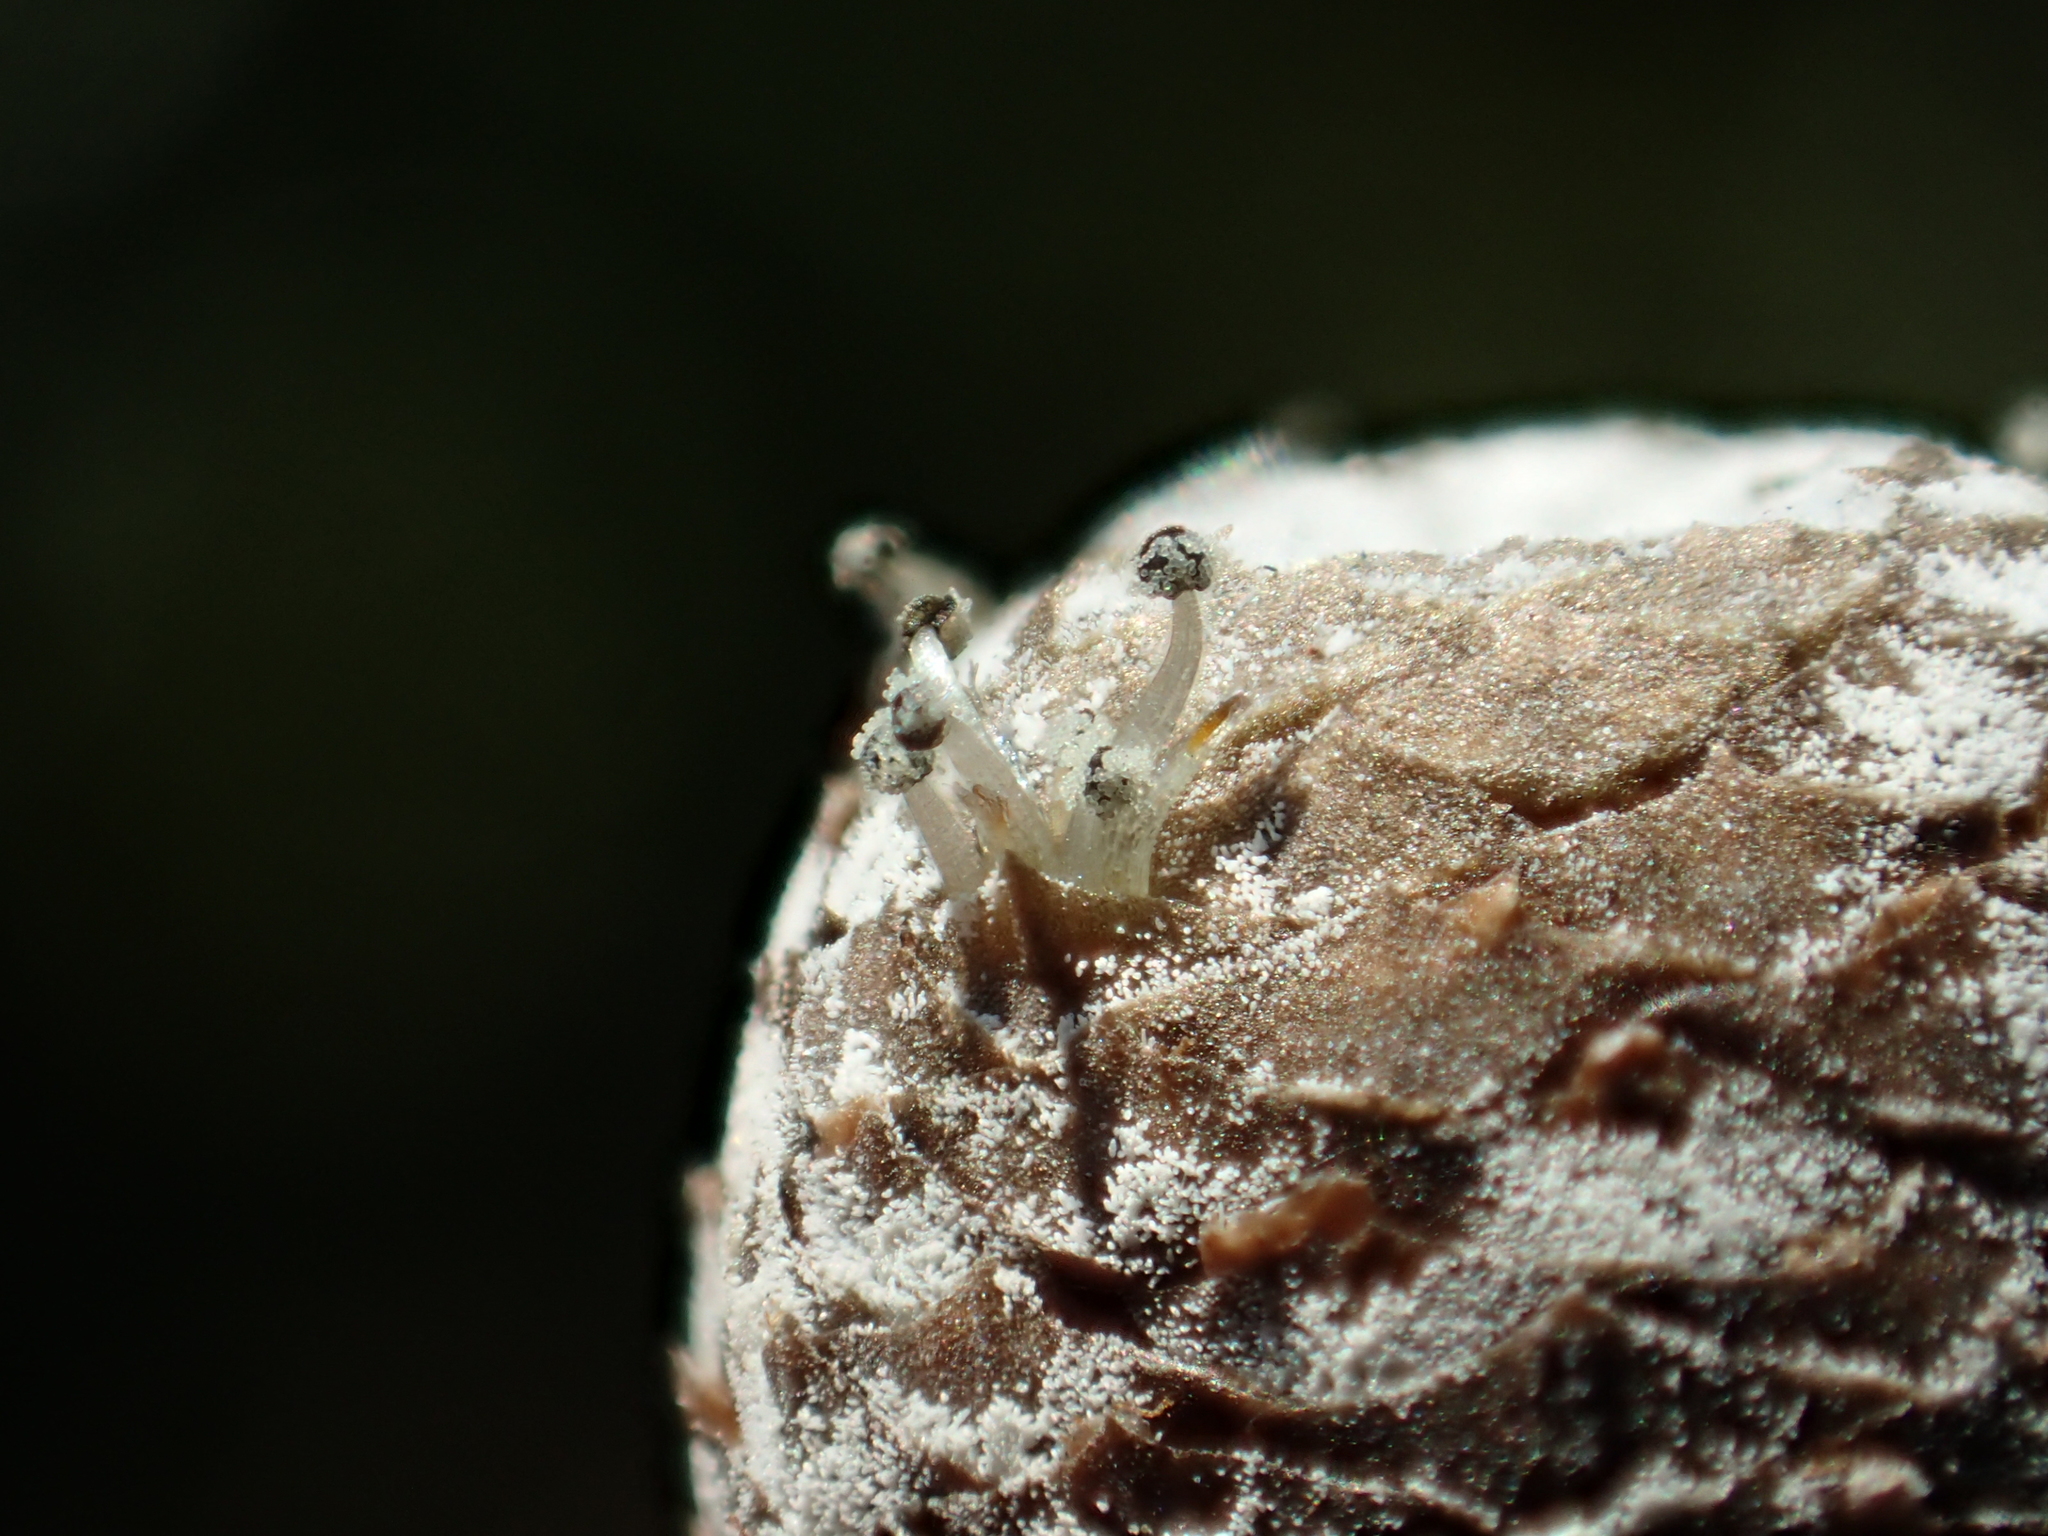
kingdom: Plantae
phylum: Tracheophyta
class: Liliopsida
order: Poales
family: Eriocaulaceae
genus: Eriocaulon
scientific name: Eriocaulon sexangulare
